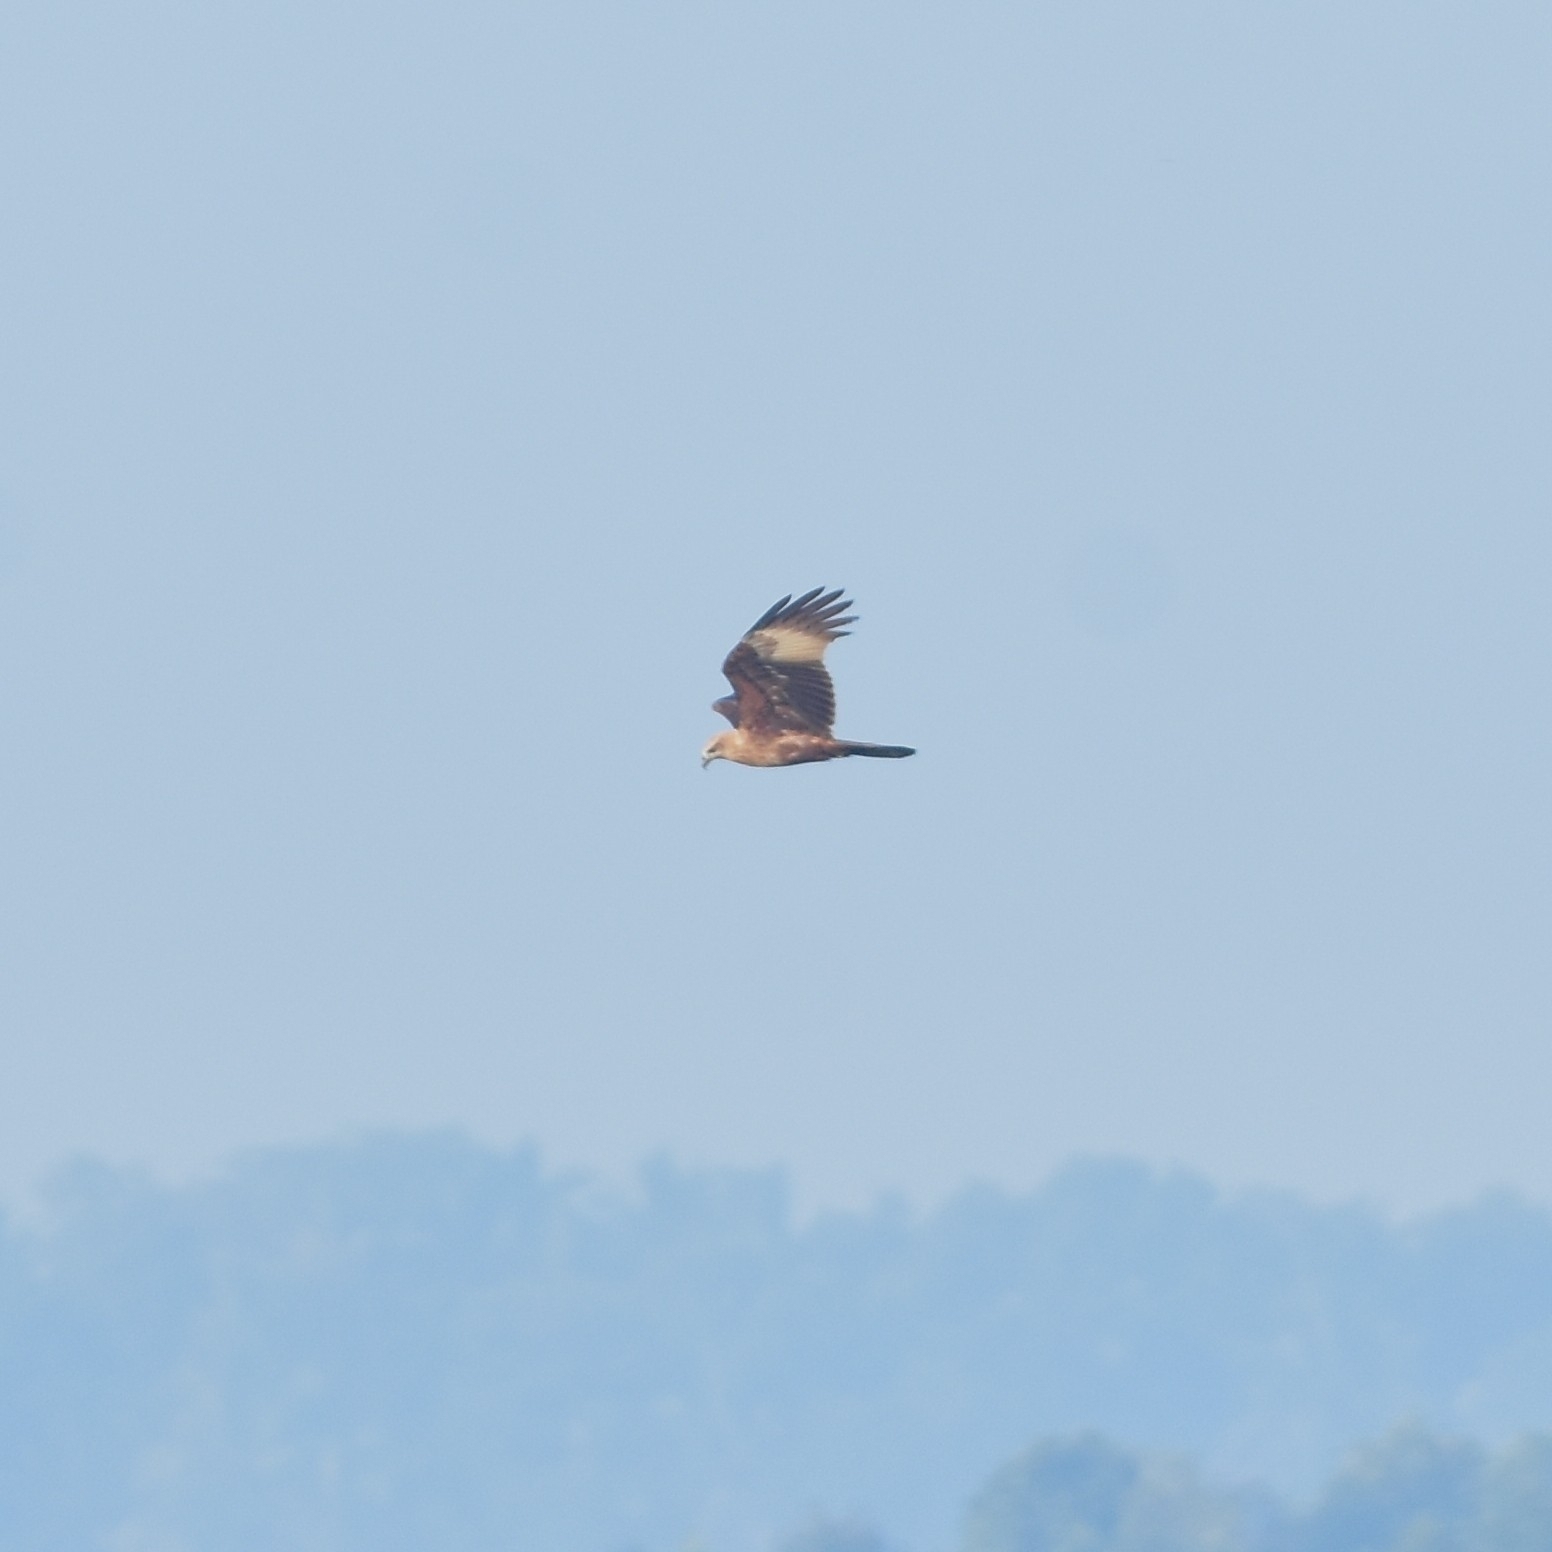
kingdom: Animalia
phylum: Chordata
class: Aves
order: Accipitriformes
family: Accipitridae
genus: Haliastur
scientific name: Haliastur indus
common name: Brahminy kite
